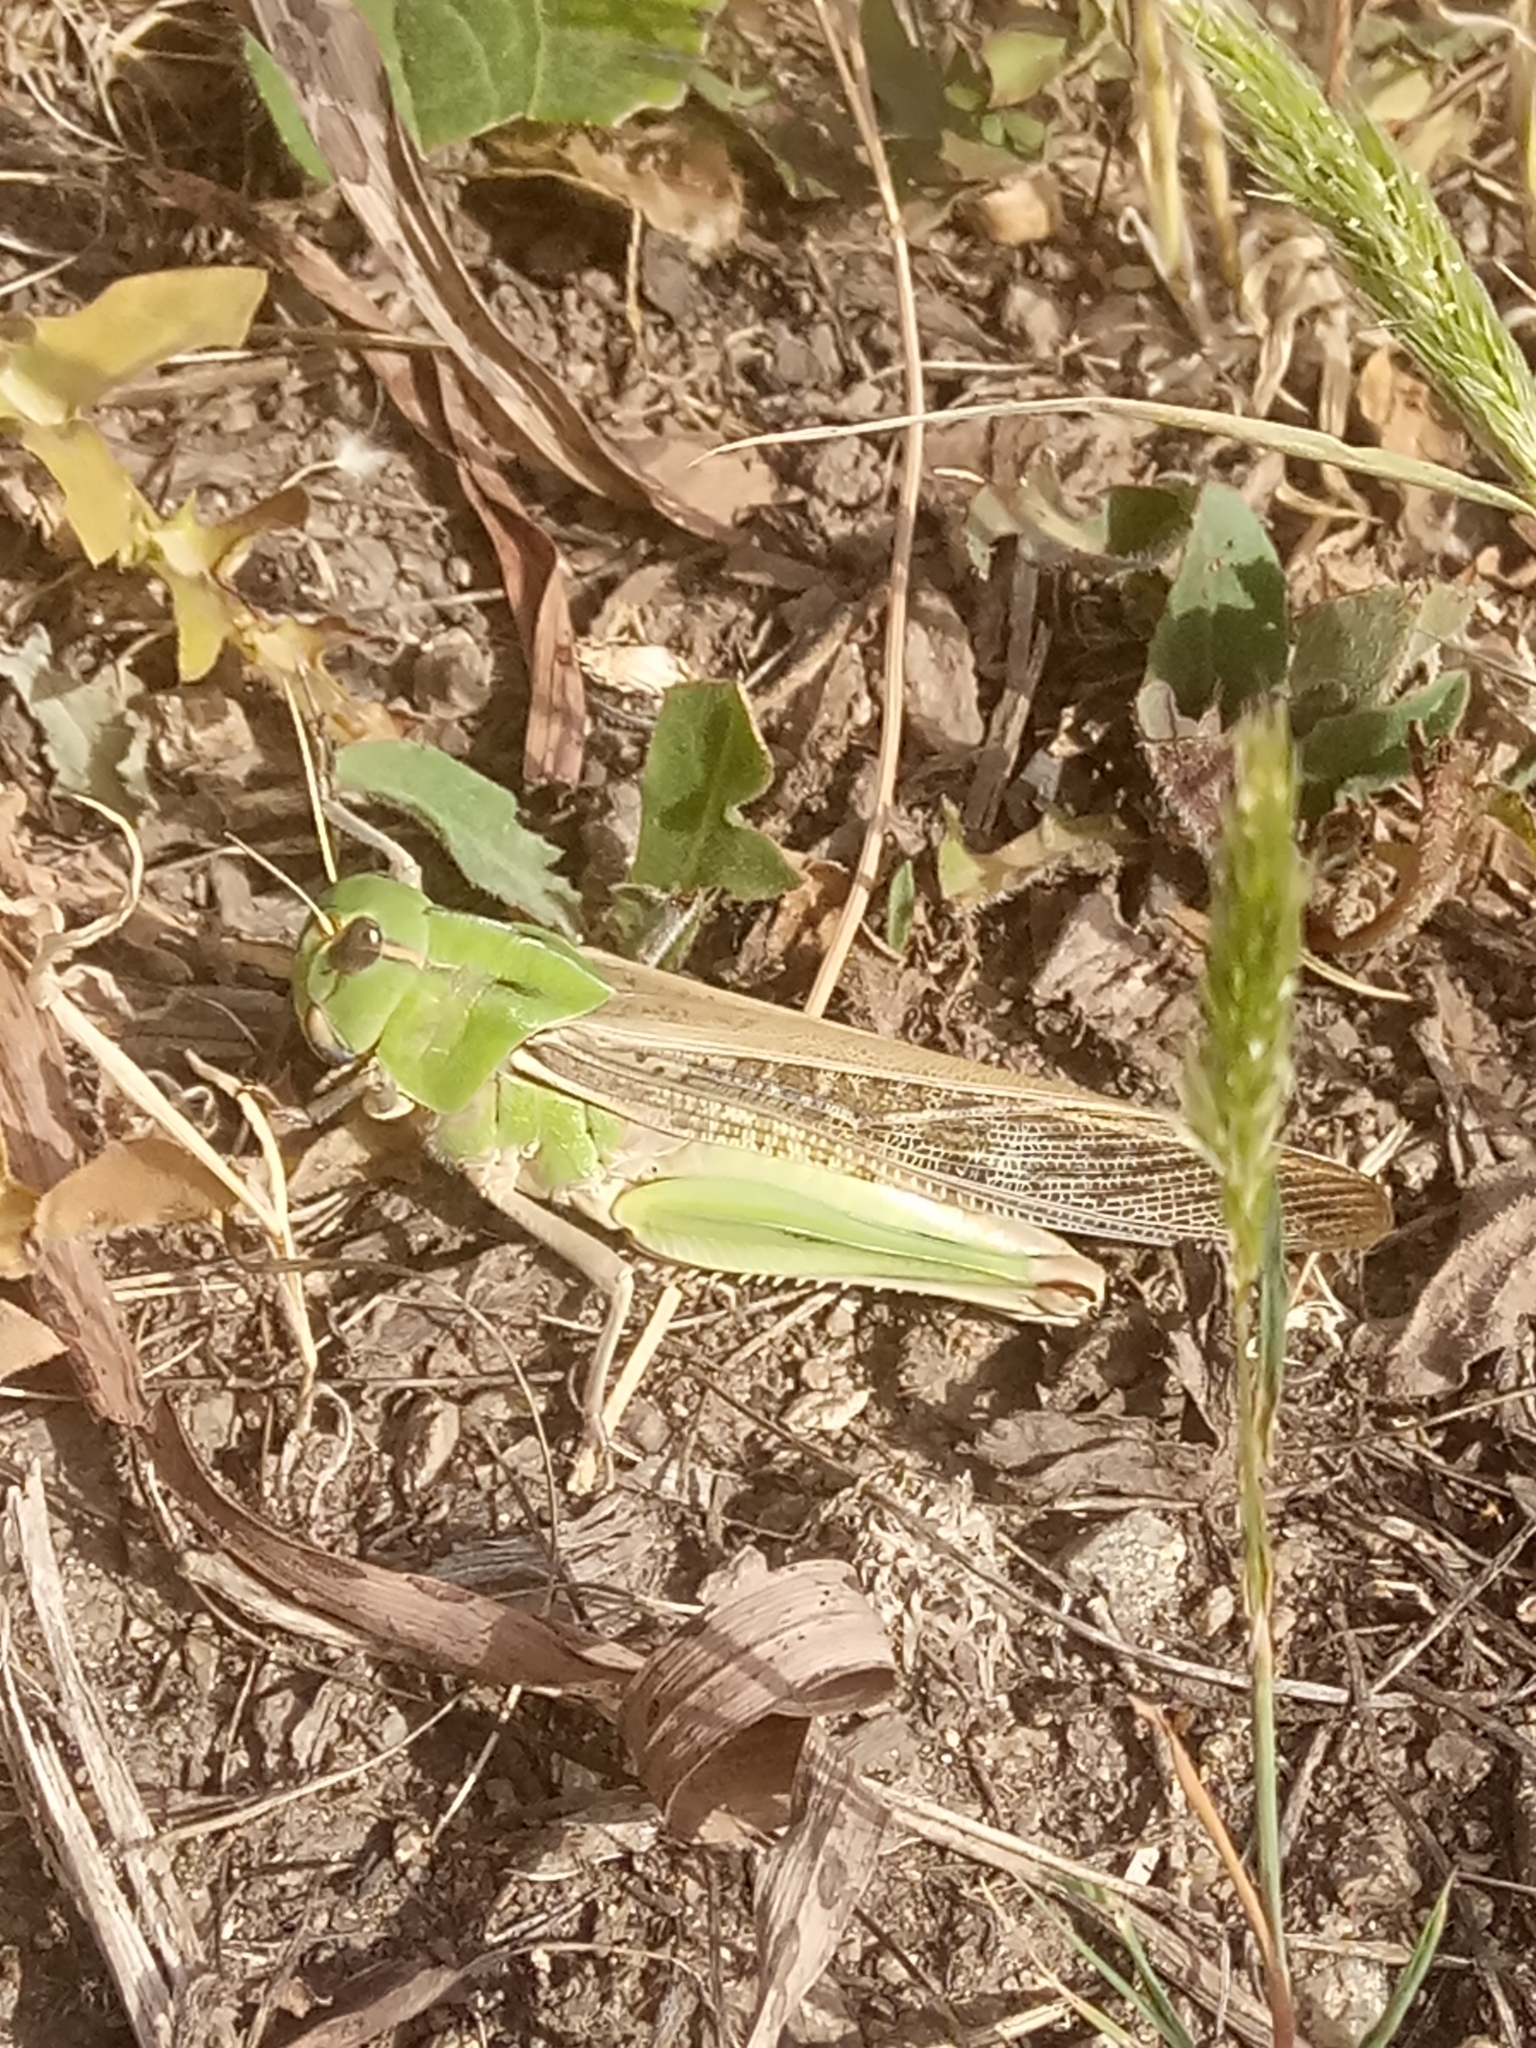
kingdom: Animalia
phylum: Arthropoda
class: Insecta
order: Orthoptera
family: Acrididae
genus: Locusta
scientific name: Locusta migratoria
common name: Migratory locust
